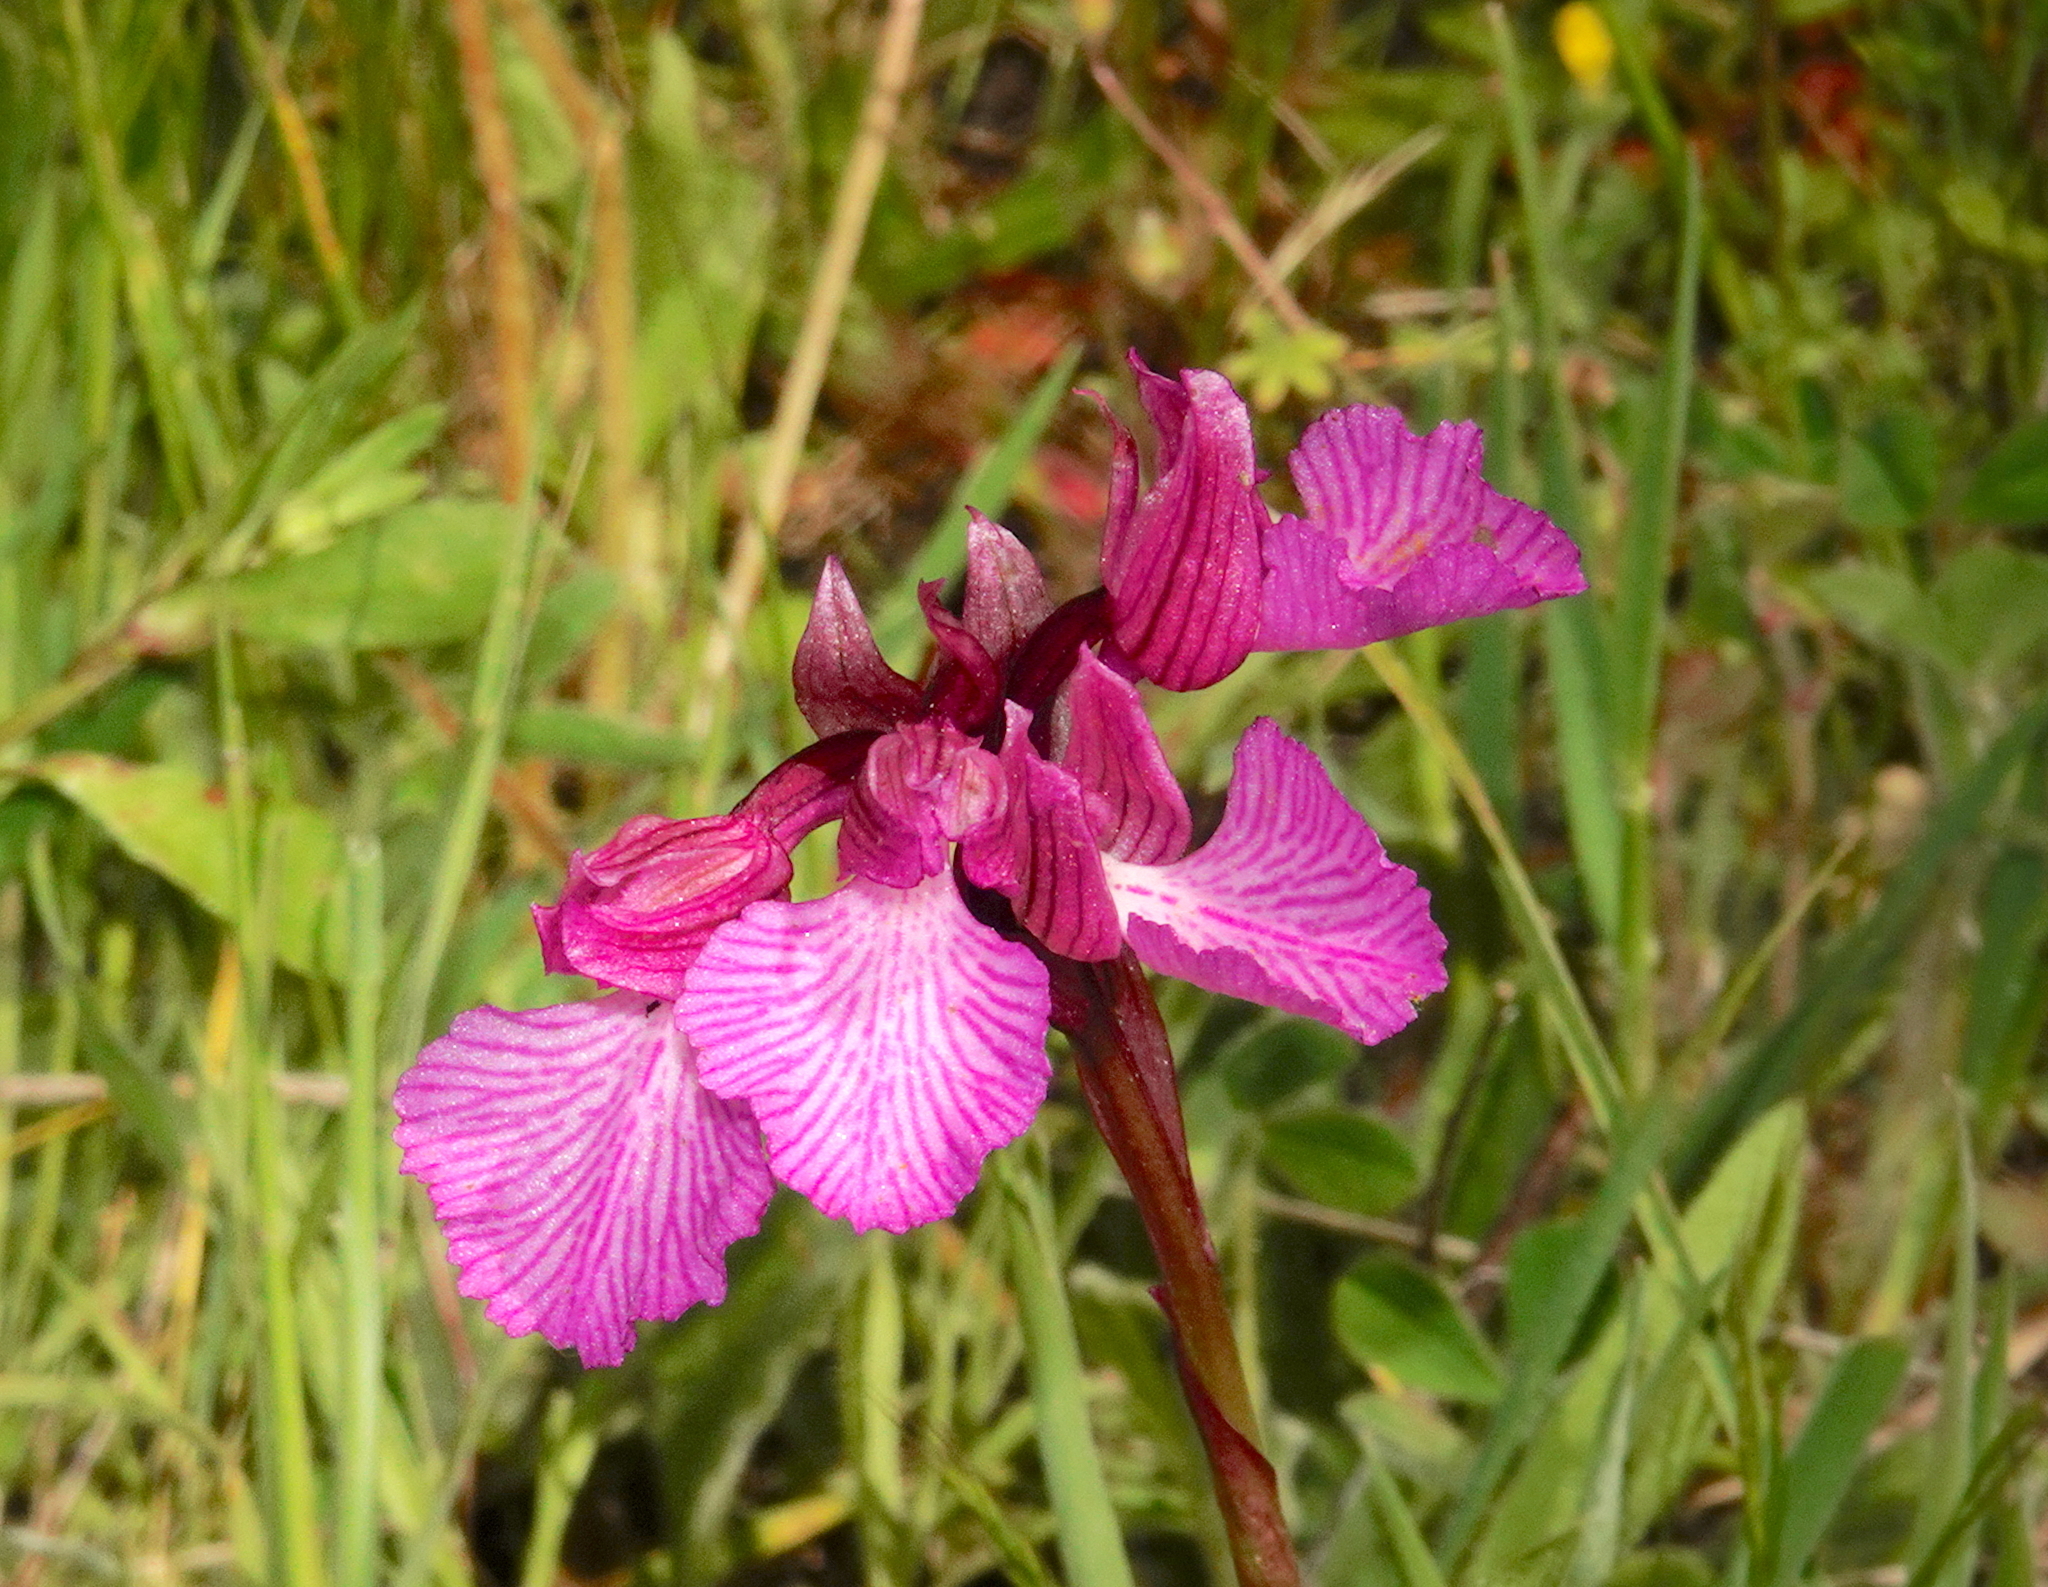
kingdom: Plantae
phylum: Tracheophyta
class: Liliopsida
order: Asparagales
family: Orchidaceae
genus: Anacamptis
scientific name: Anacamptis papilionacea
